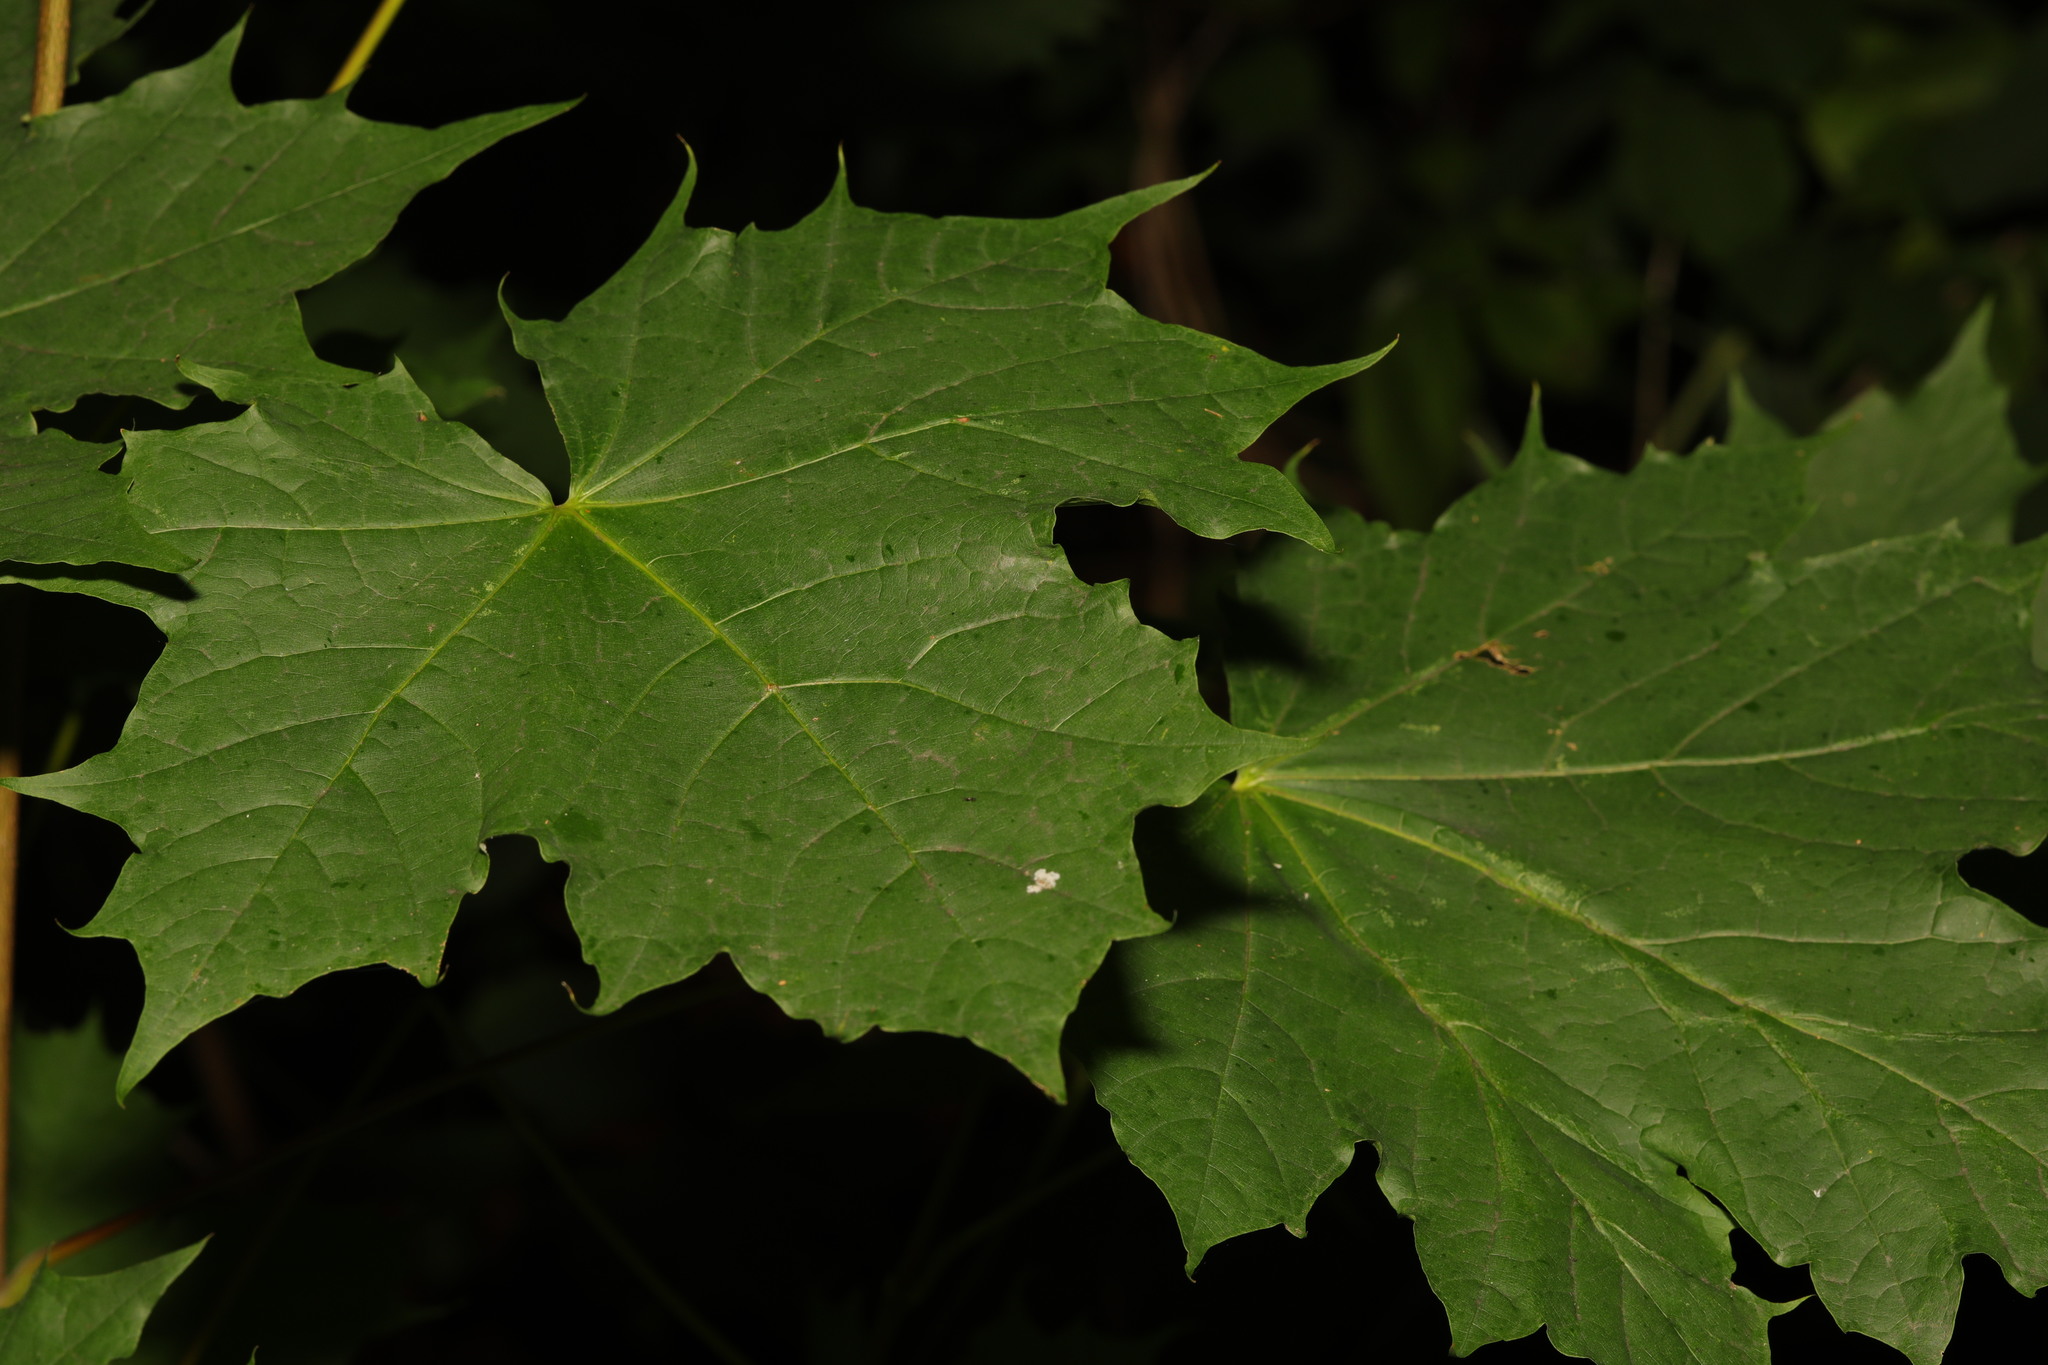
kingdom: Plantae
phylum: Tracheophyta
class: Magnoliopsida
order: Sapindales
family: Sapindaceae
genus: Acer
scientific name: Acer platanoides
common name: Norway maple
